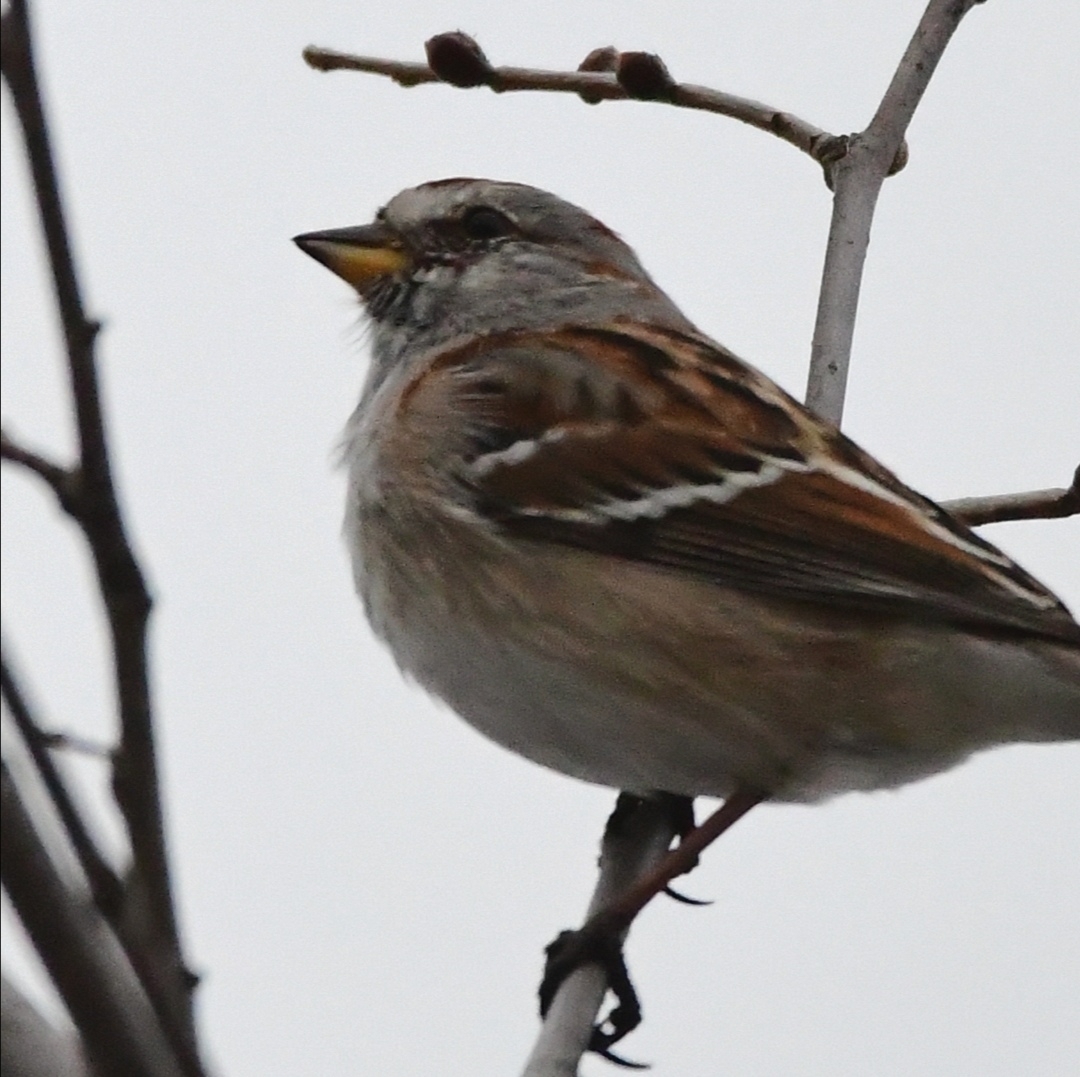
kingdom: Animalia
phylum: Chordata
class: Aves
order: Passeriformes
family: Passerellidae
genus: Spizelloides
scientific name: Spizelloides arborea
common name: American tree sparrow
